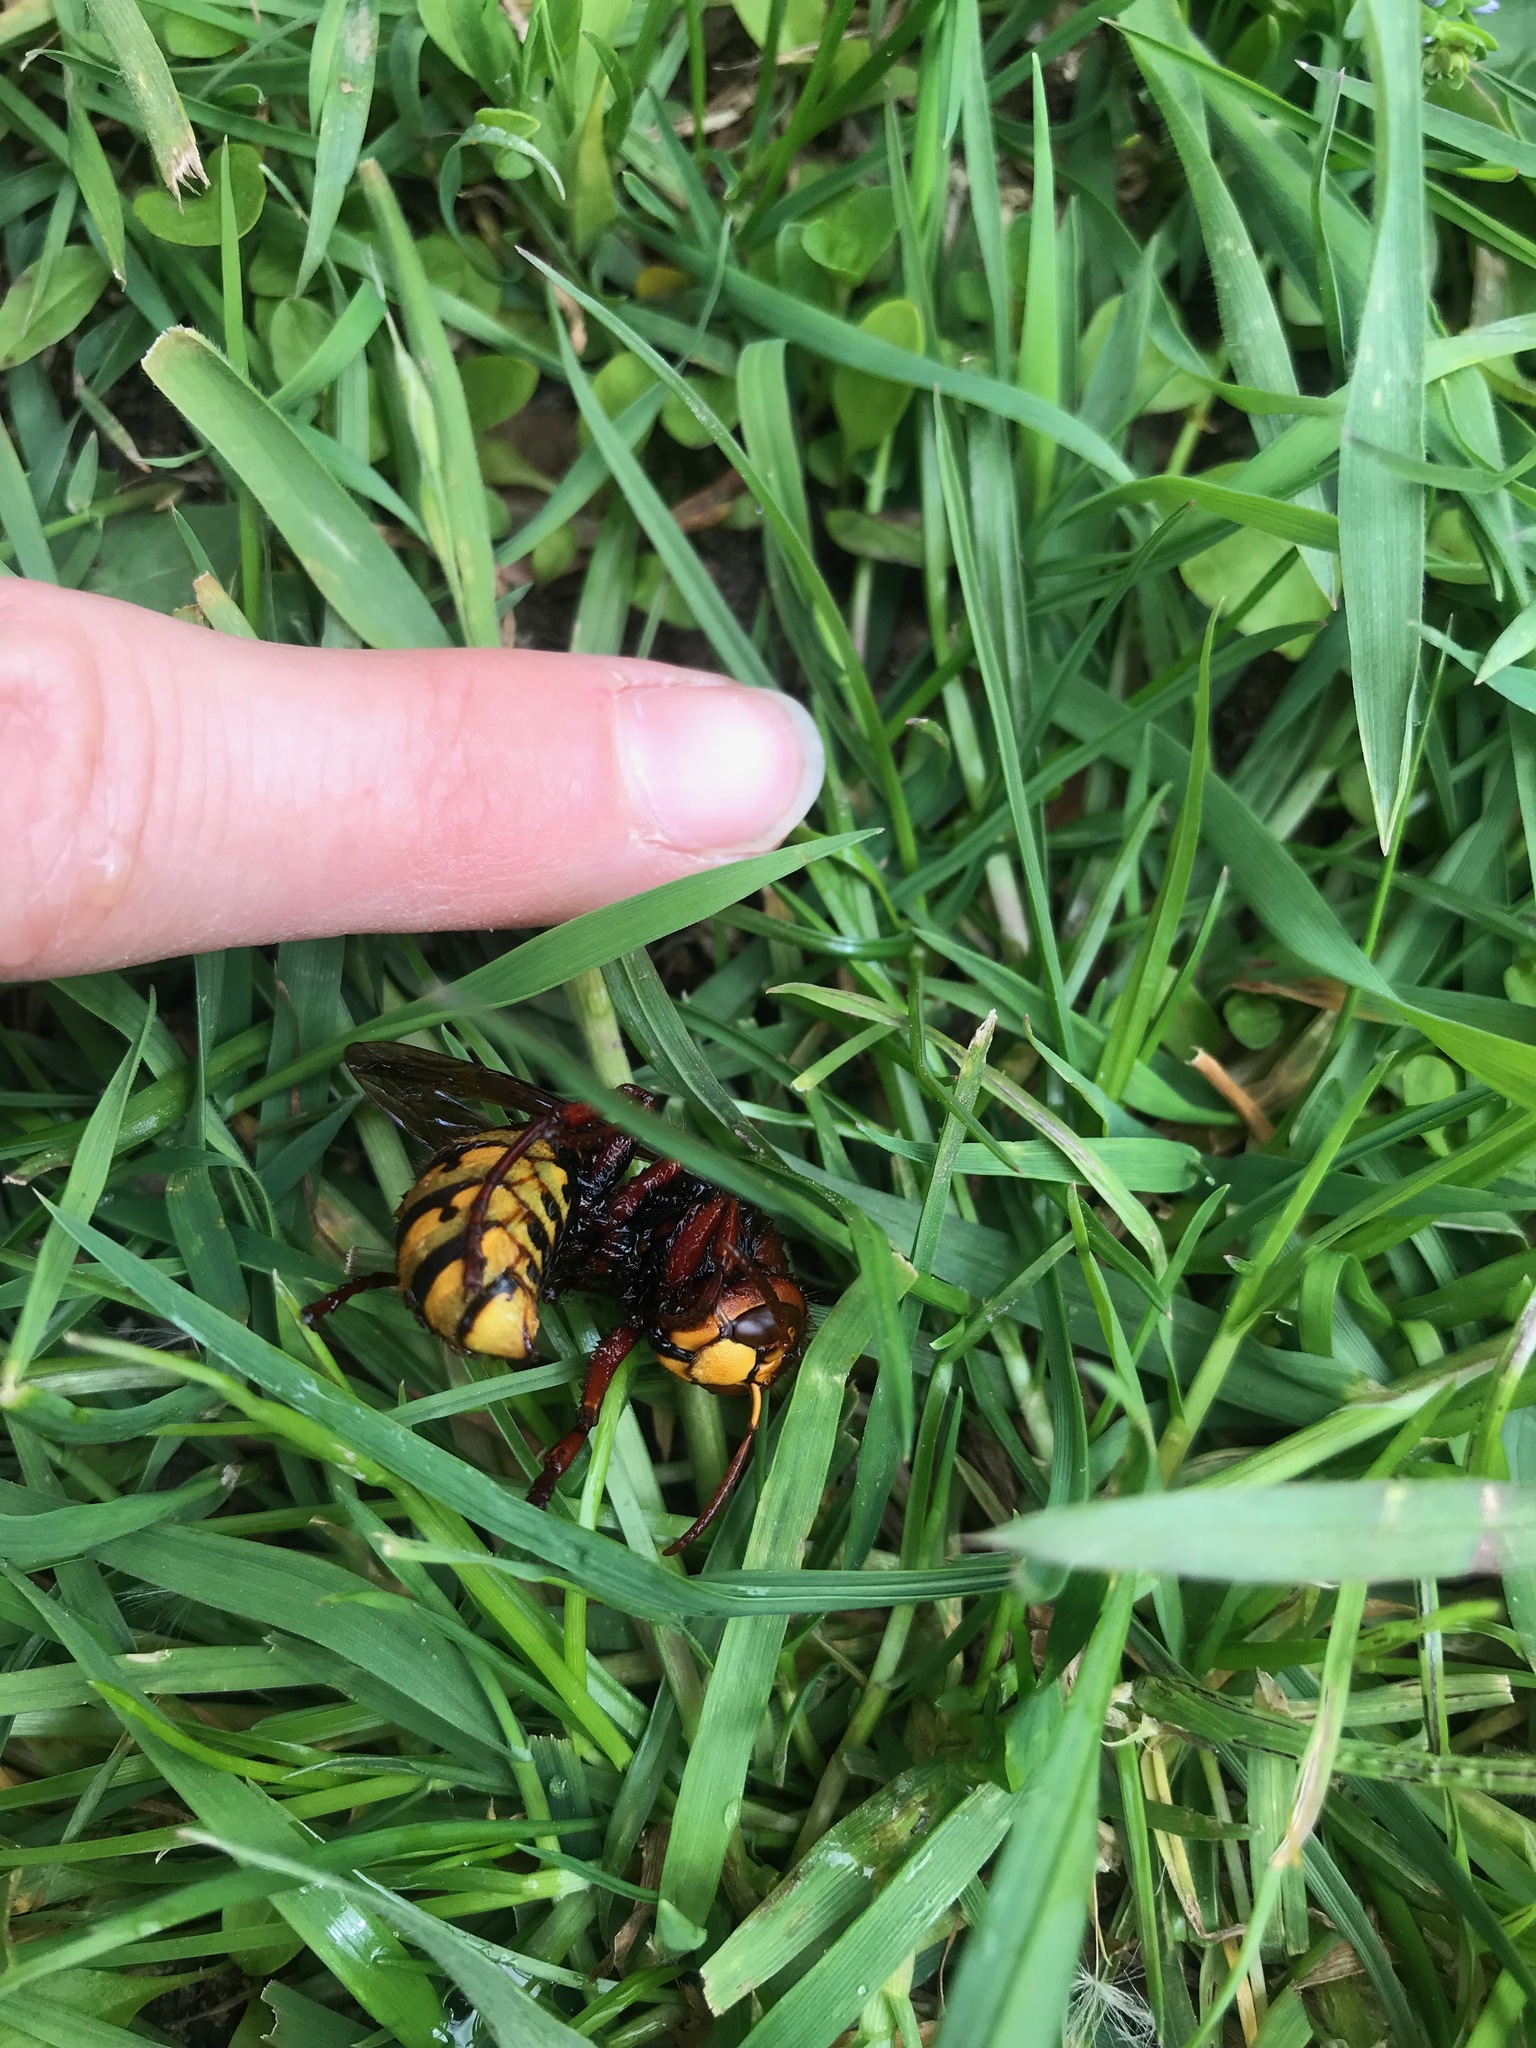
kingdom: Animalia
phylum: Arthropoda
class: Insecta
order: Hymenoptera
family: Vespidae
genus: Vespa
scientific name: Vespa crabro
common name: Hornet
